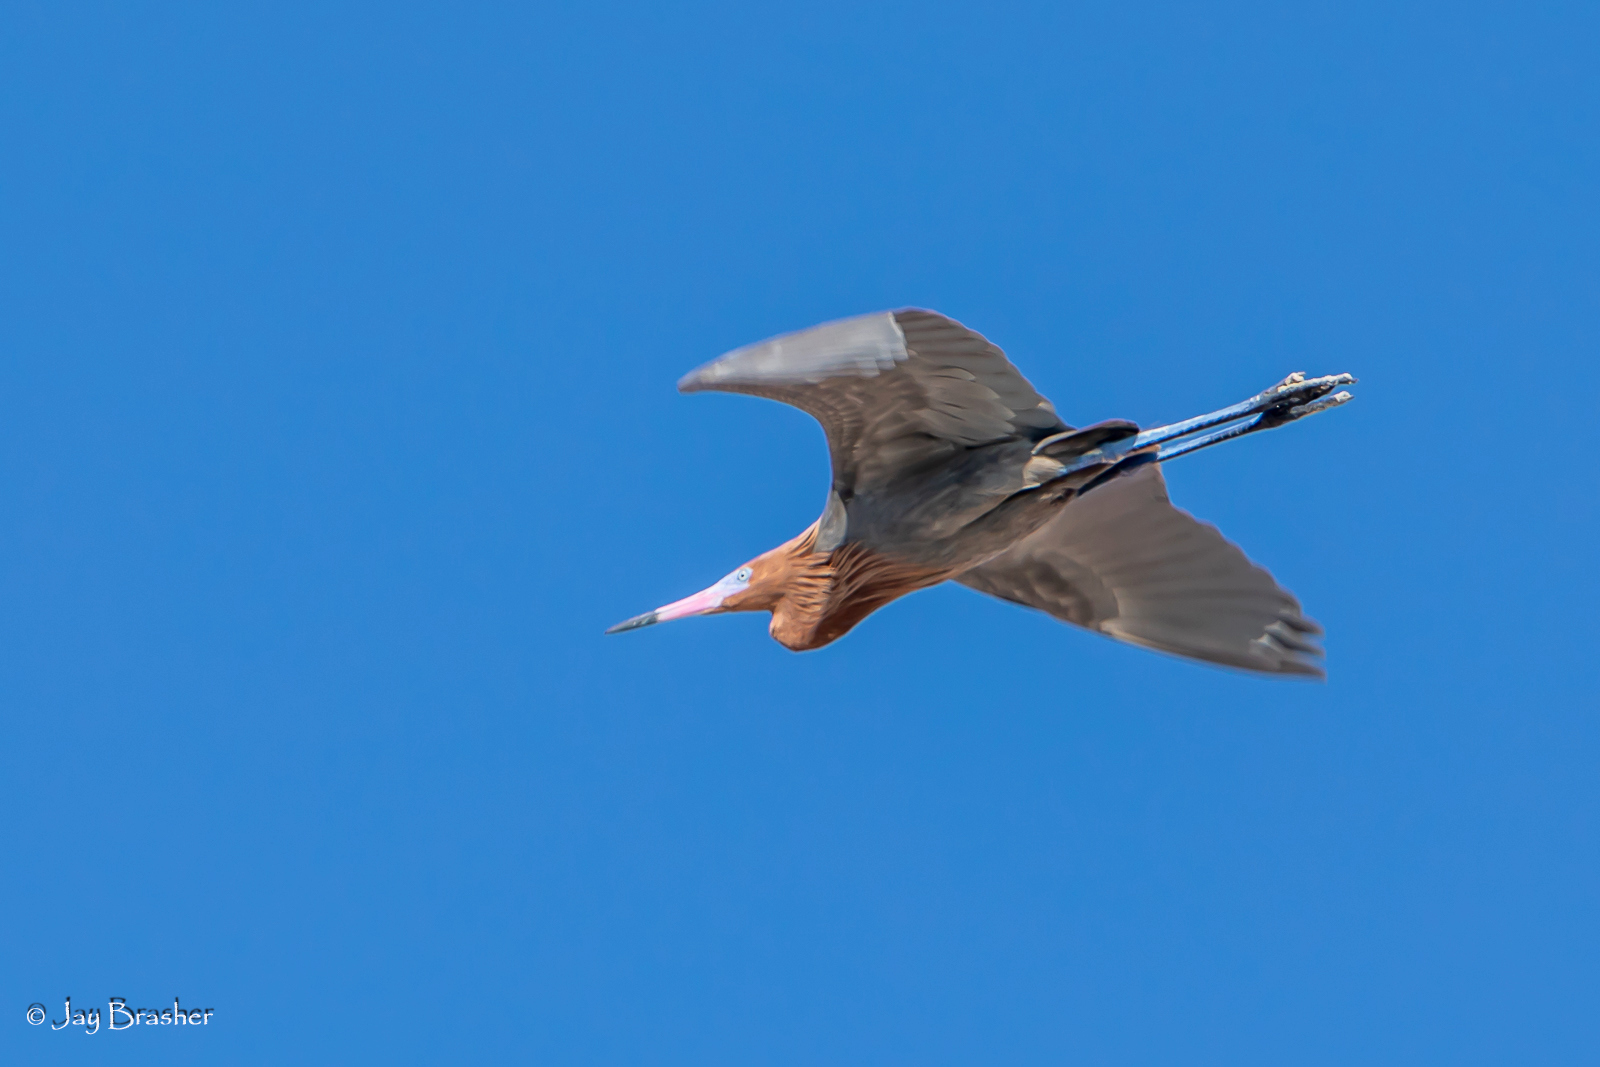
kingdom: Animalia
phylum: Chordata
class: Aves
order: Pelecaniformes
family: Ardeidae
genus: Egretta
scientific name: Egretta rufescens
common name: Reddish egret
